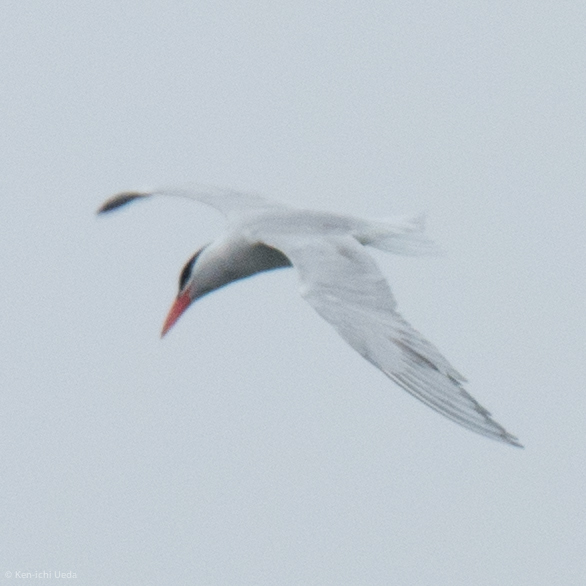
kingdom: Animalia
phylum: Chordata
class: Aves
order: Charadriiformes
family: Laridae
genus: Hydroprogne
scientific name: Hydroprogne caspia
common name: Caspian tern
